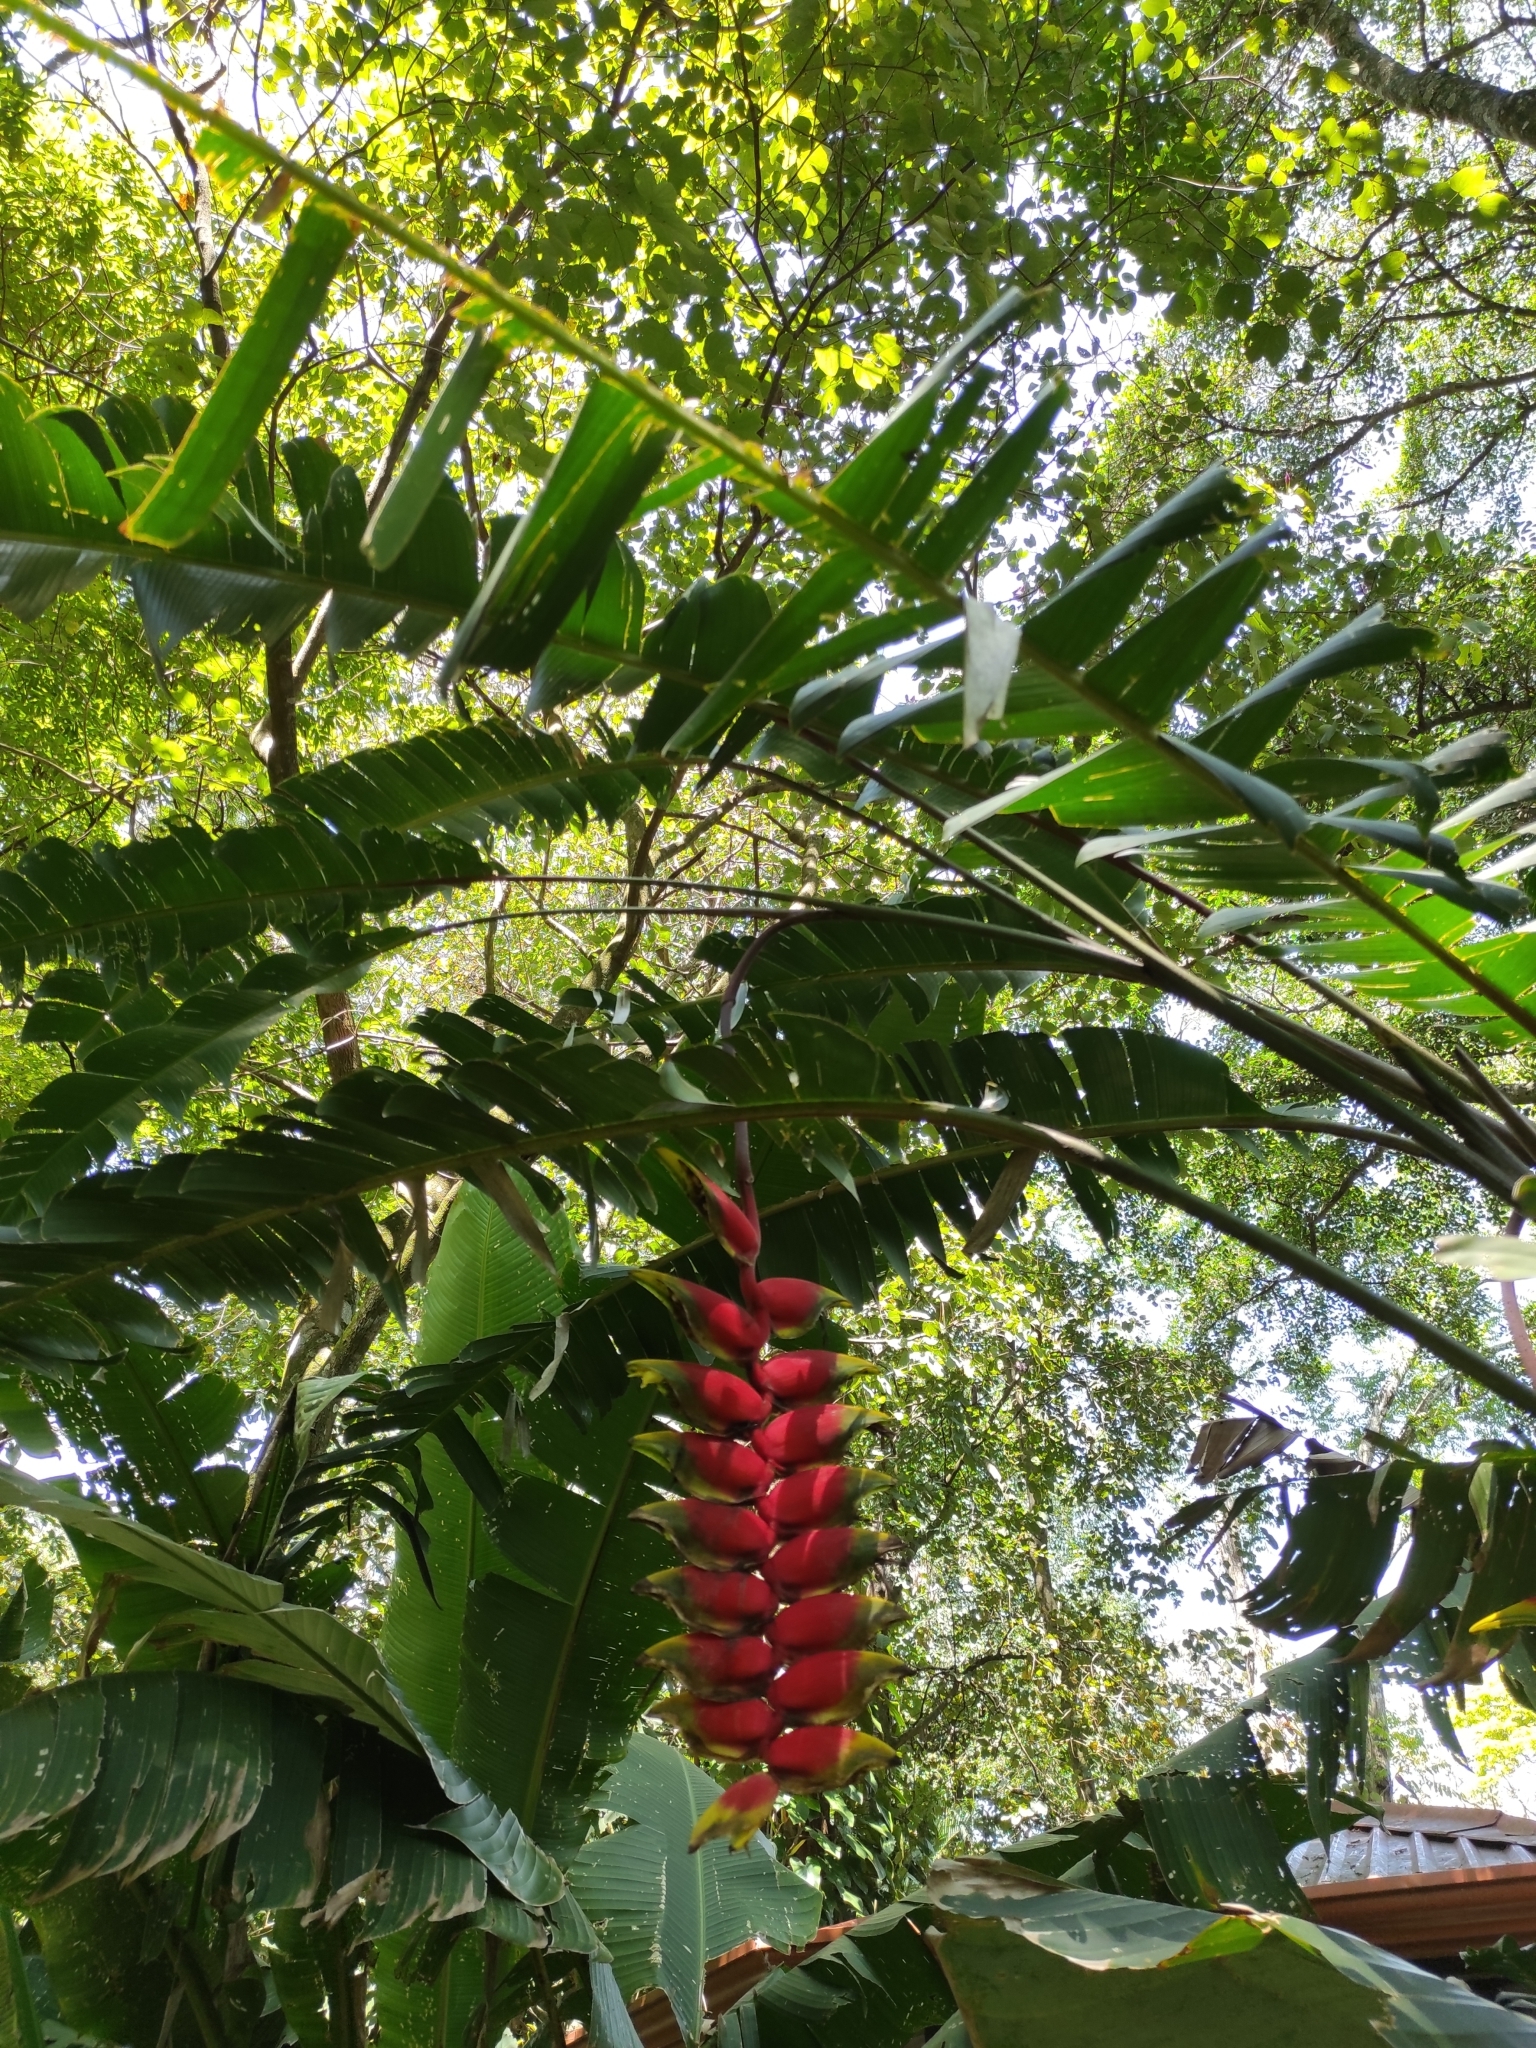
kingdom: Plantae
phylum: Tracheophyta
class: Liliopsida
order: Zingiberales
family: Heliconiaceae
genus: Heliconia
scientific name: Heliconia rostrata
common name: False bird of paradise
